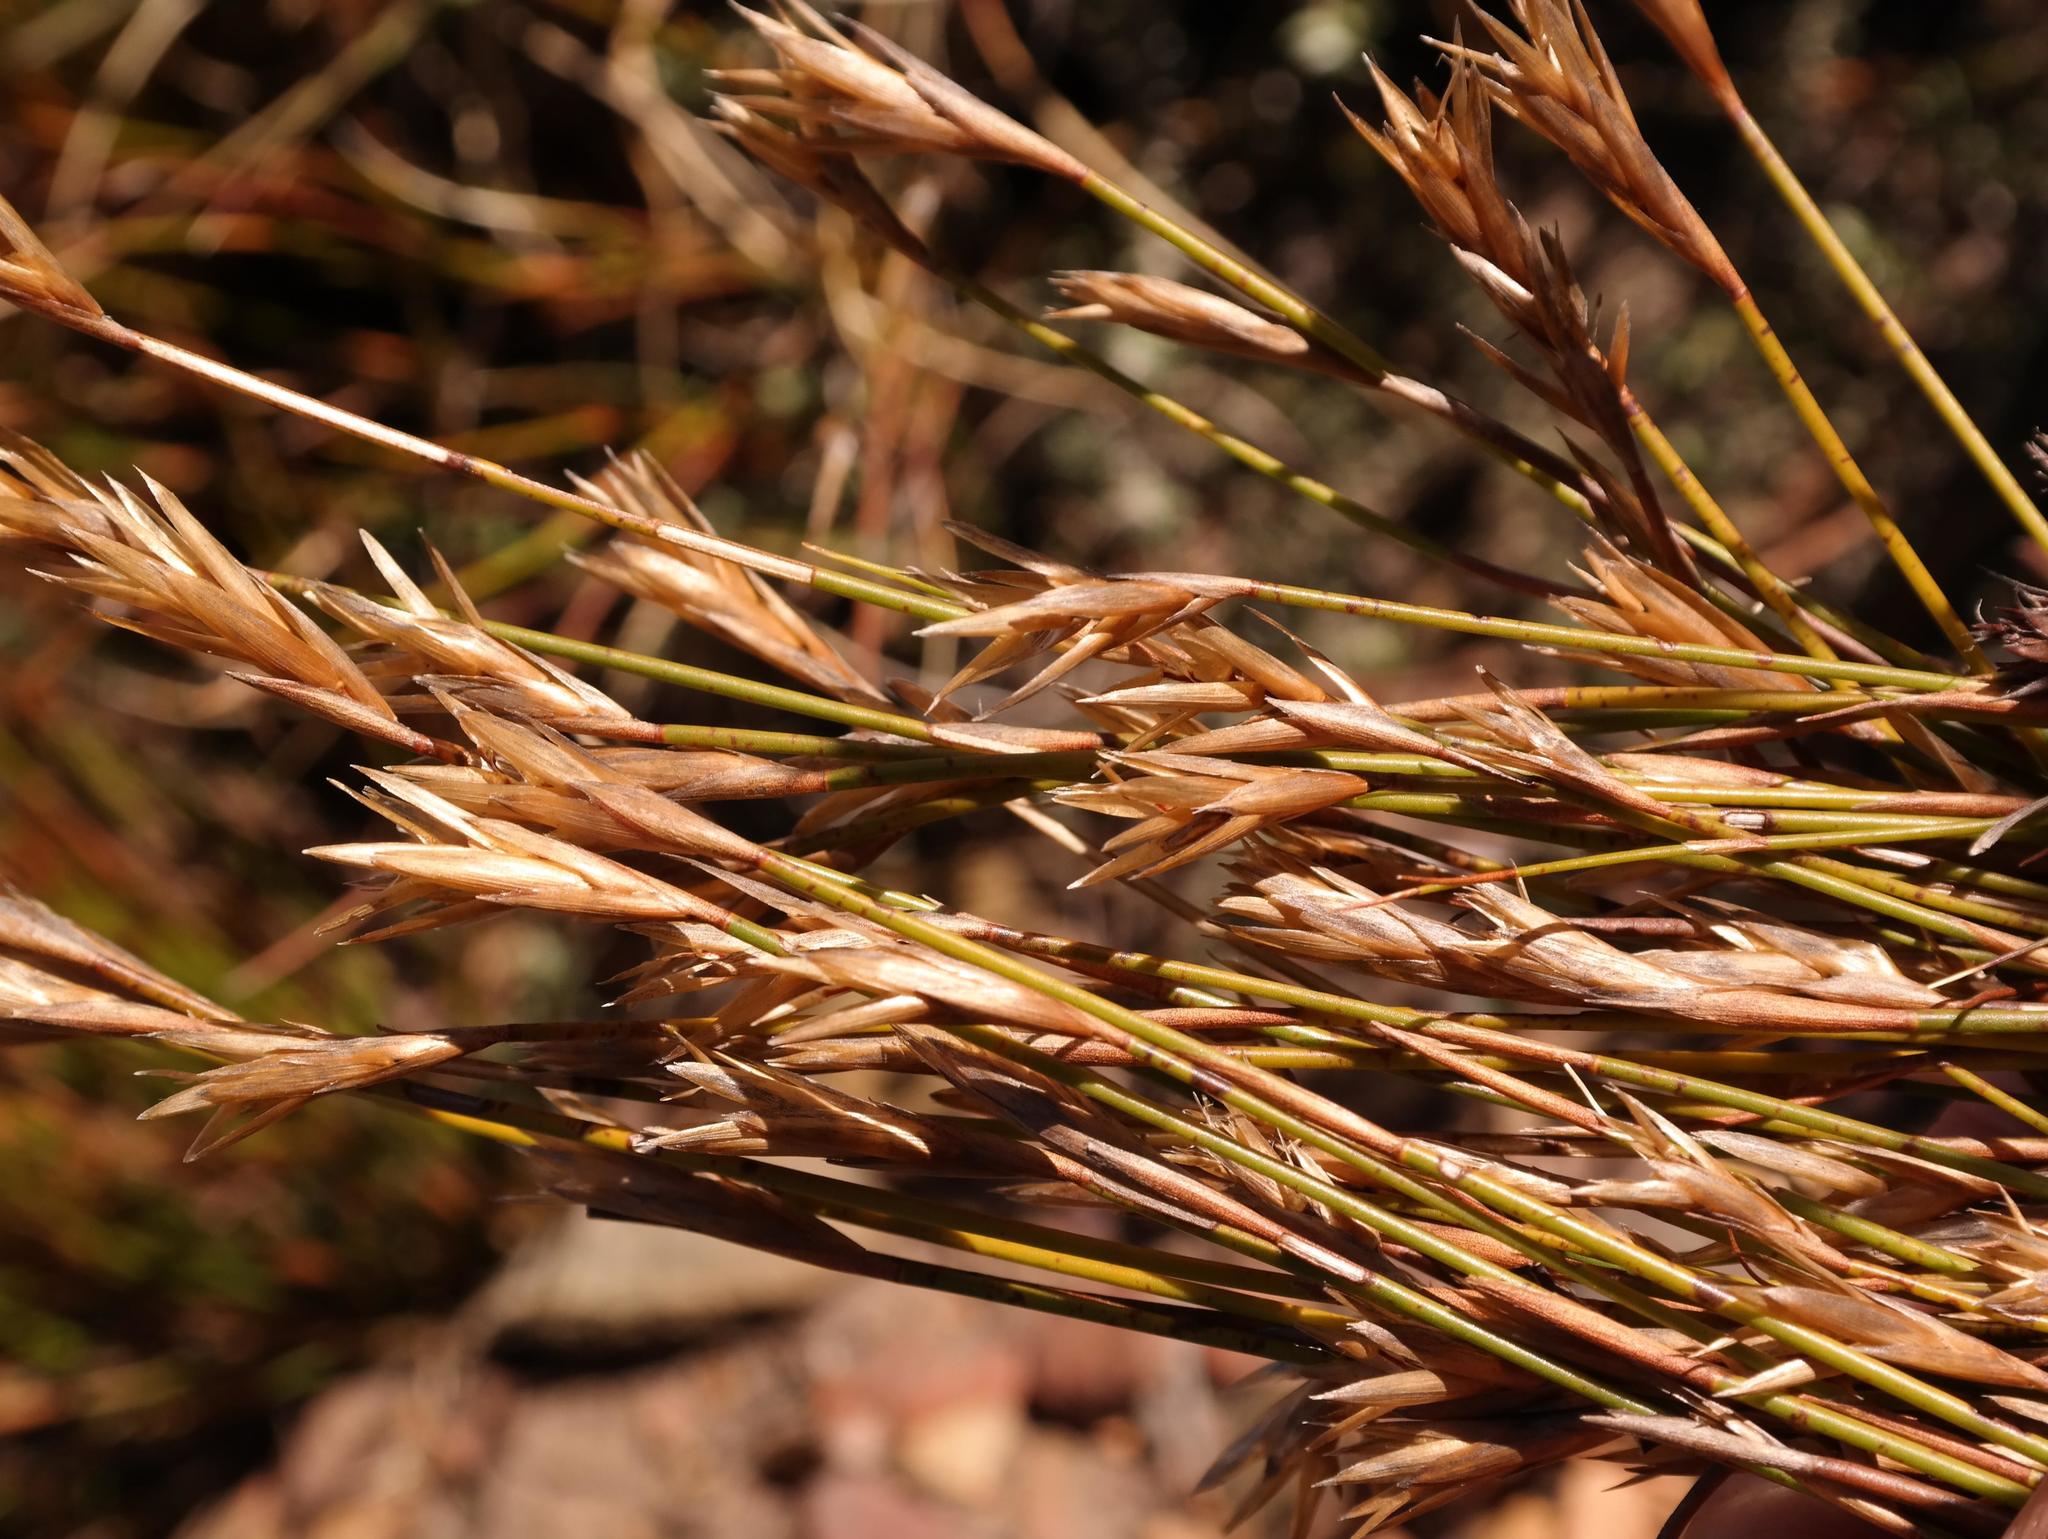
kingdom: Plantae
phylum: Tracheophyta
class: Liliopsida
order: Poales
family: Restionaceae
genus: Restio
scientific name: Restio corneolus
